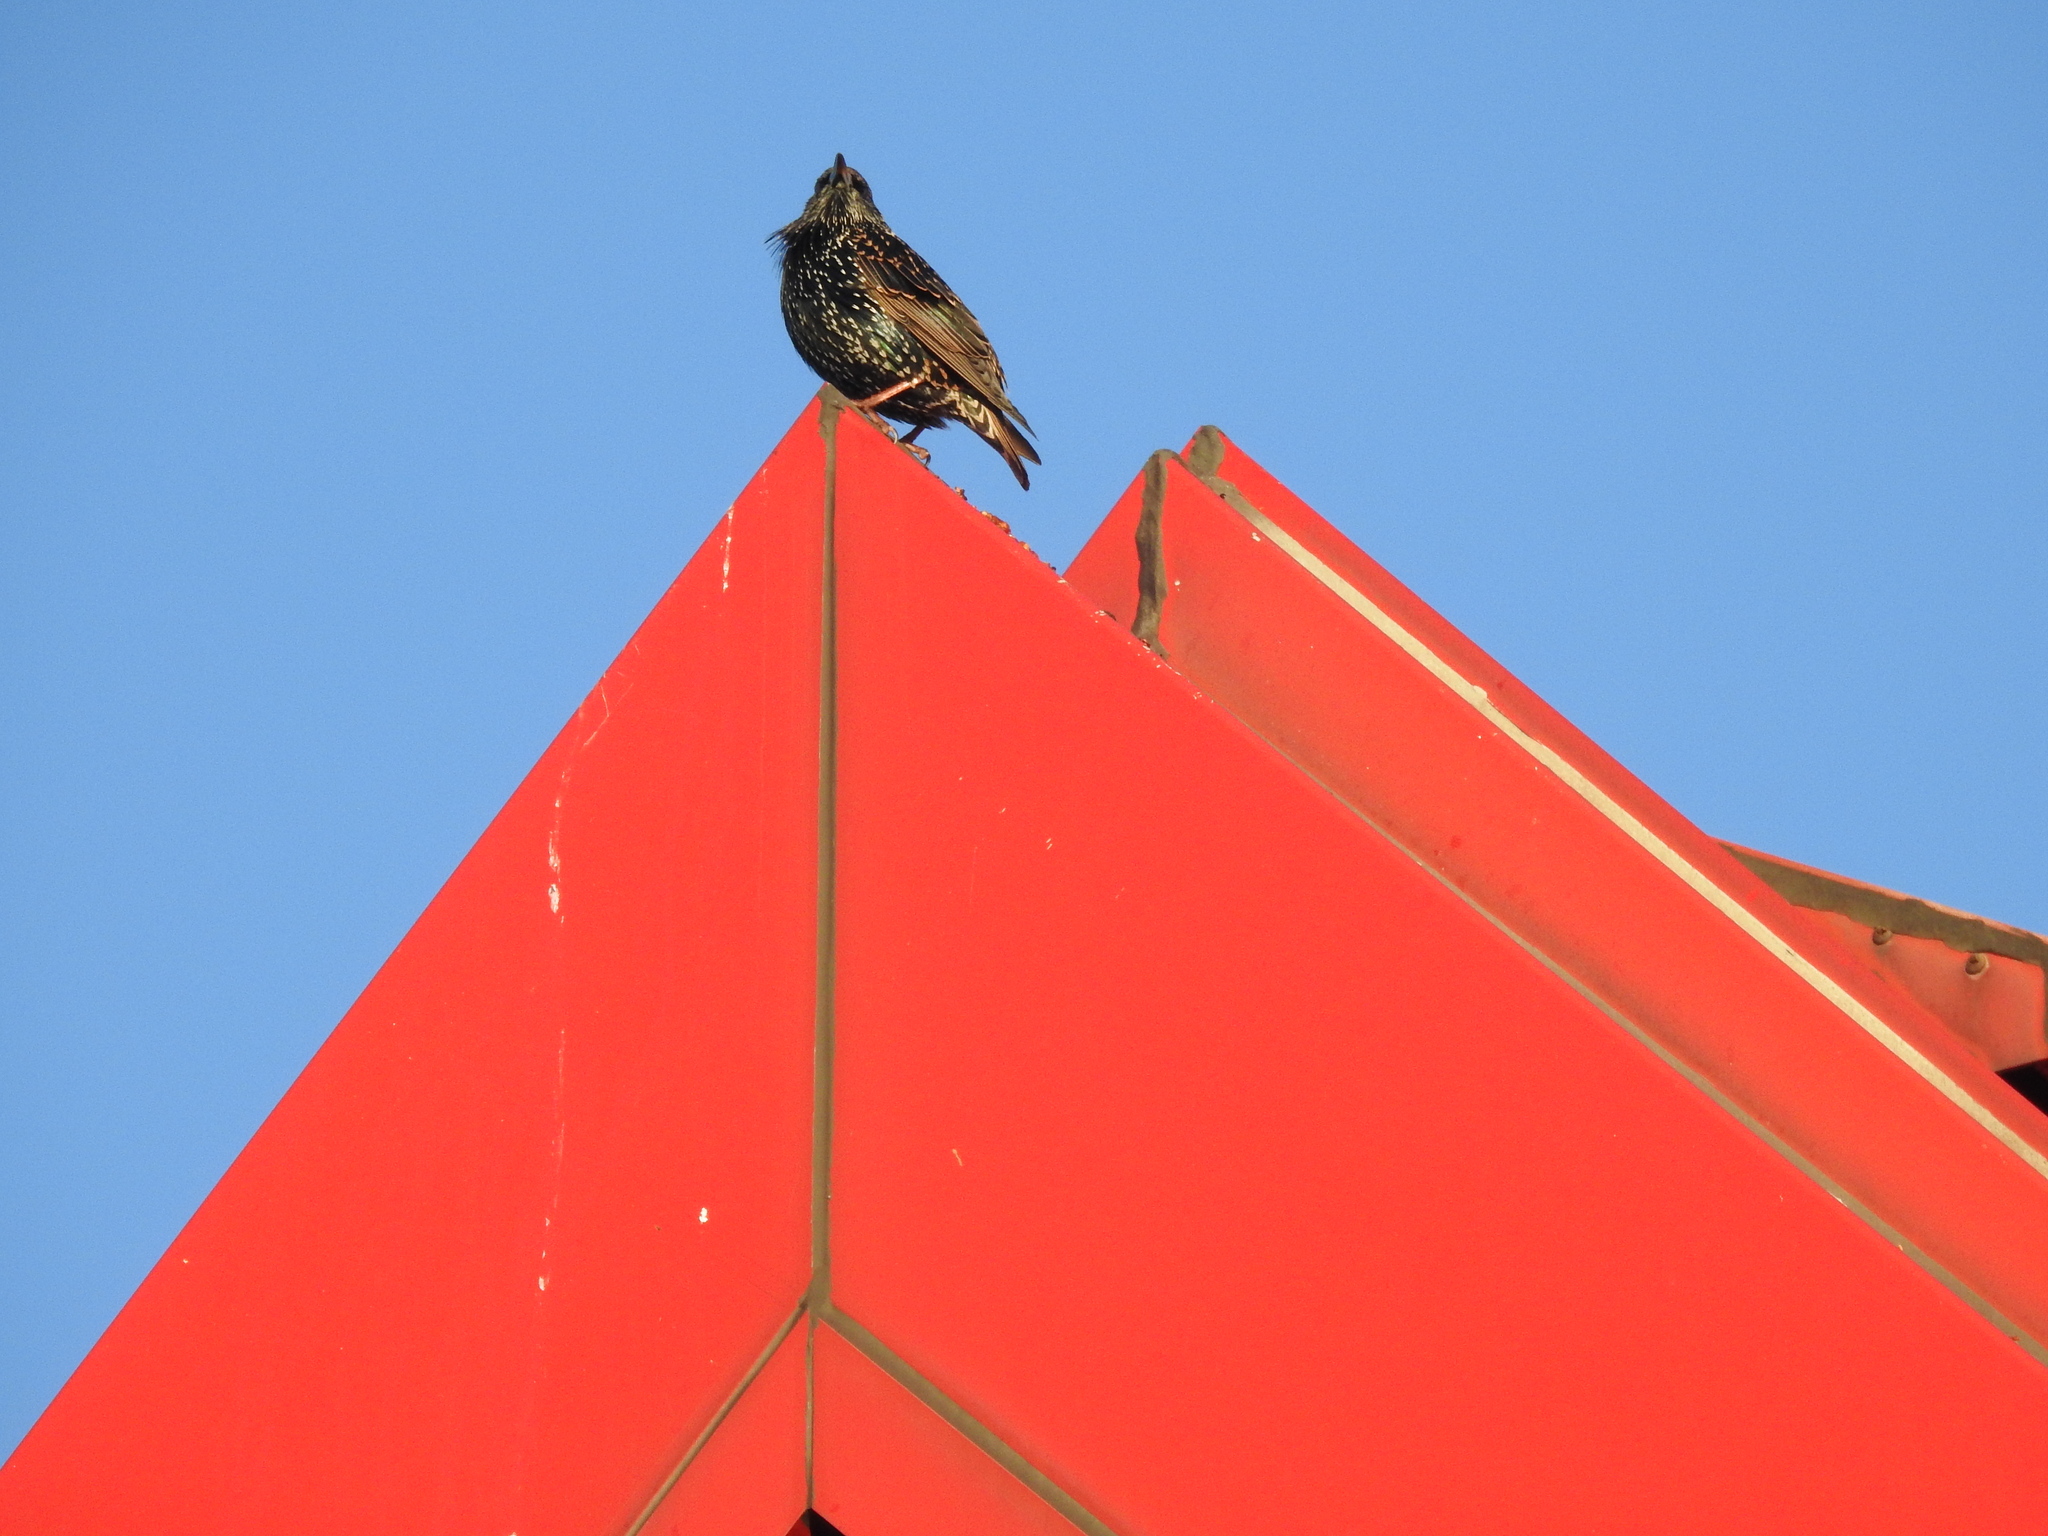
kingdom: Animalia
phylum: Chordata
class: Aves
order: Passeriformes
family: Sturnidae
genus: Sturnus
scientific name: Sturnus vulgaris
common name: Common starling
